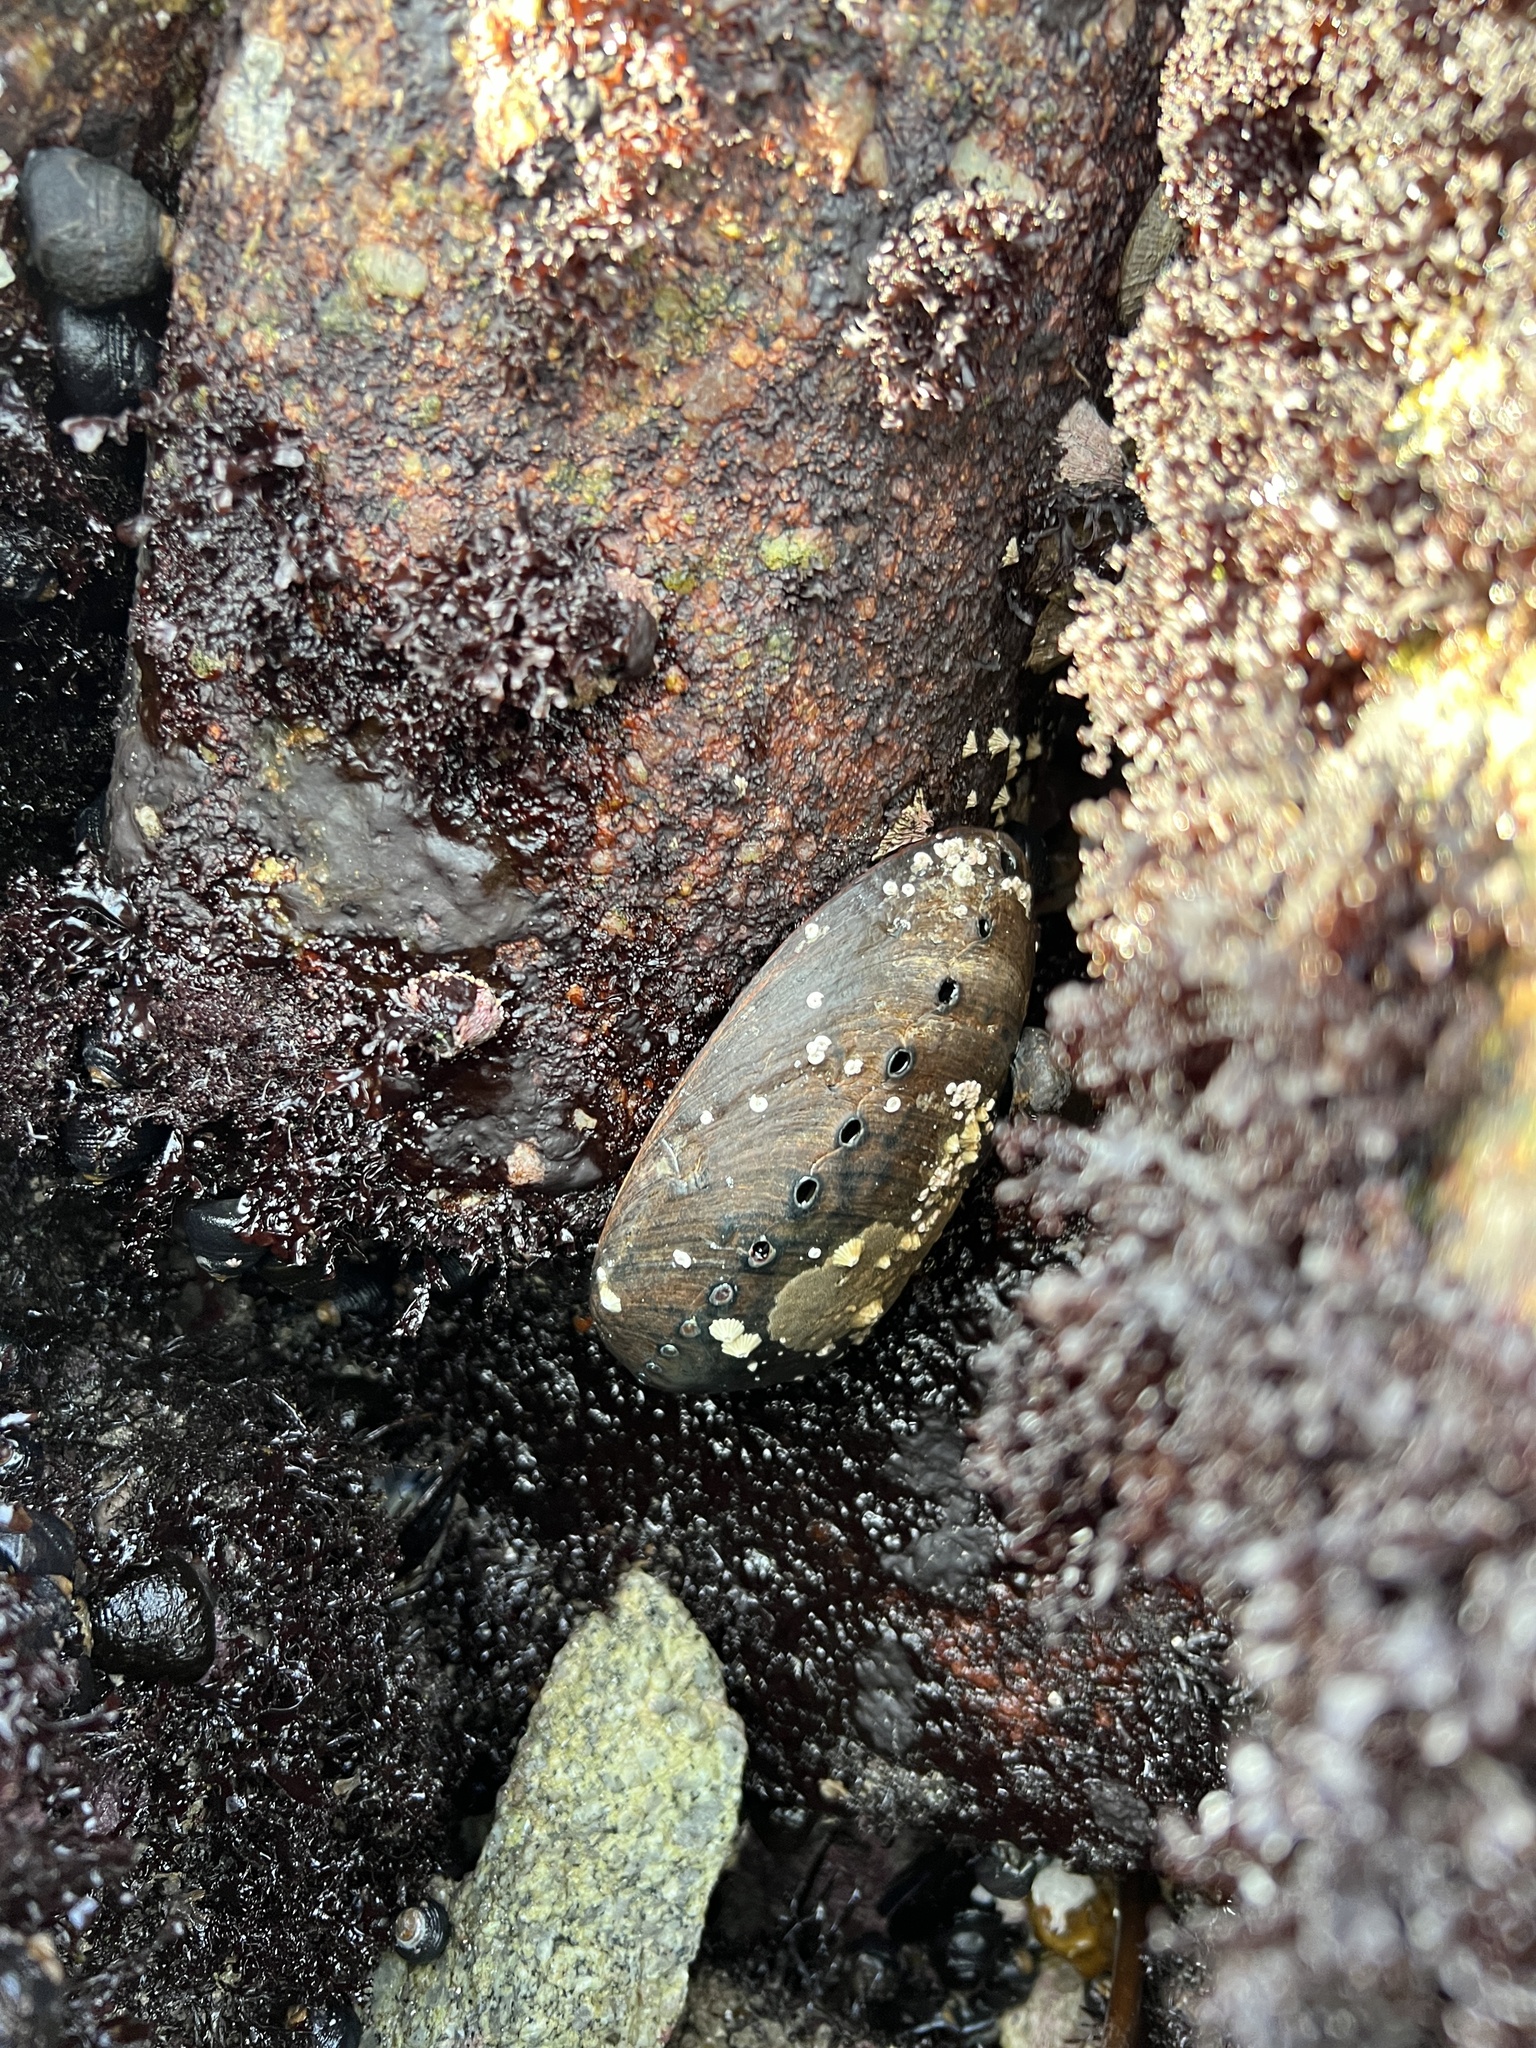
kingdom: Animalia
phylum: Mollusca
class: Gastropoda
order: Lepetellida
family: Haliotidae
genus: Haliotis
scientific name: Haliotis cracherodii
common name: Black abalone
